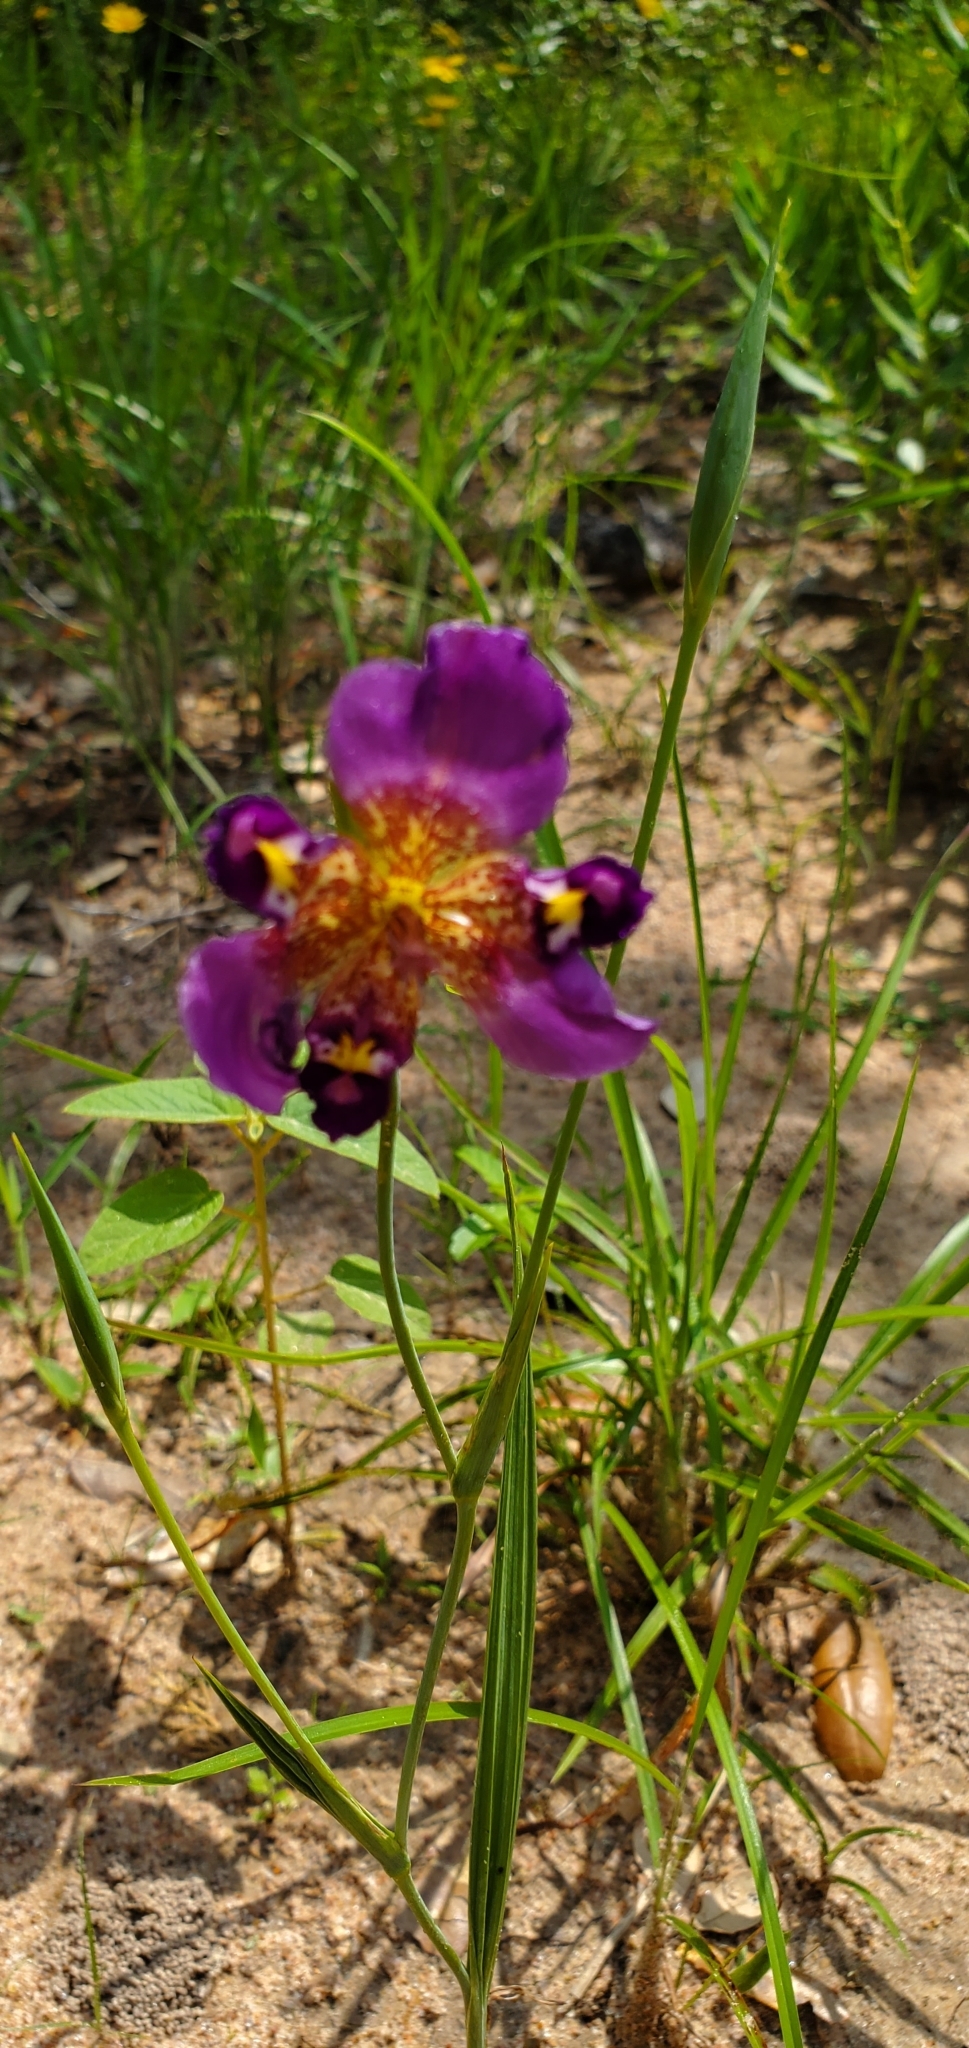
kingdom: Plantae
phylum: Tracheophyta
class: Liliopsida
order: Asparagales
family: Iridaceae
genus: Alophia
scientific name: Alophia drummondii
